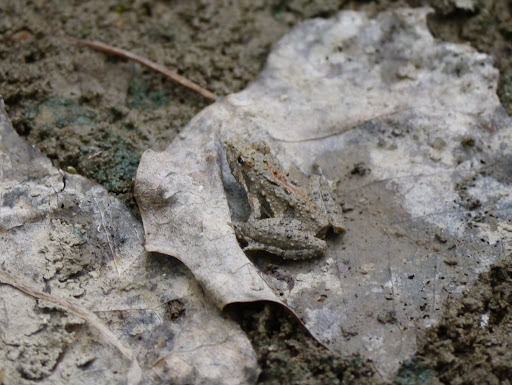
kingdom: Animalia
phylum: Chordata
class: Amphibia
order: Anura
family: Hylidae
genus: Acris
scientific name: Acris crepitans
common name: Northern cricket frog
